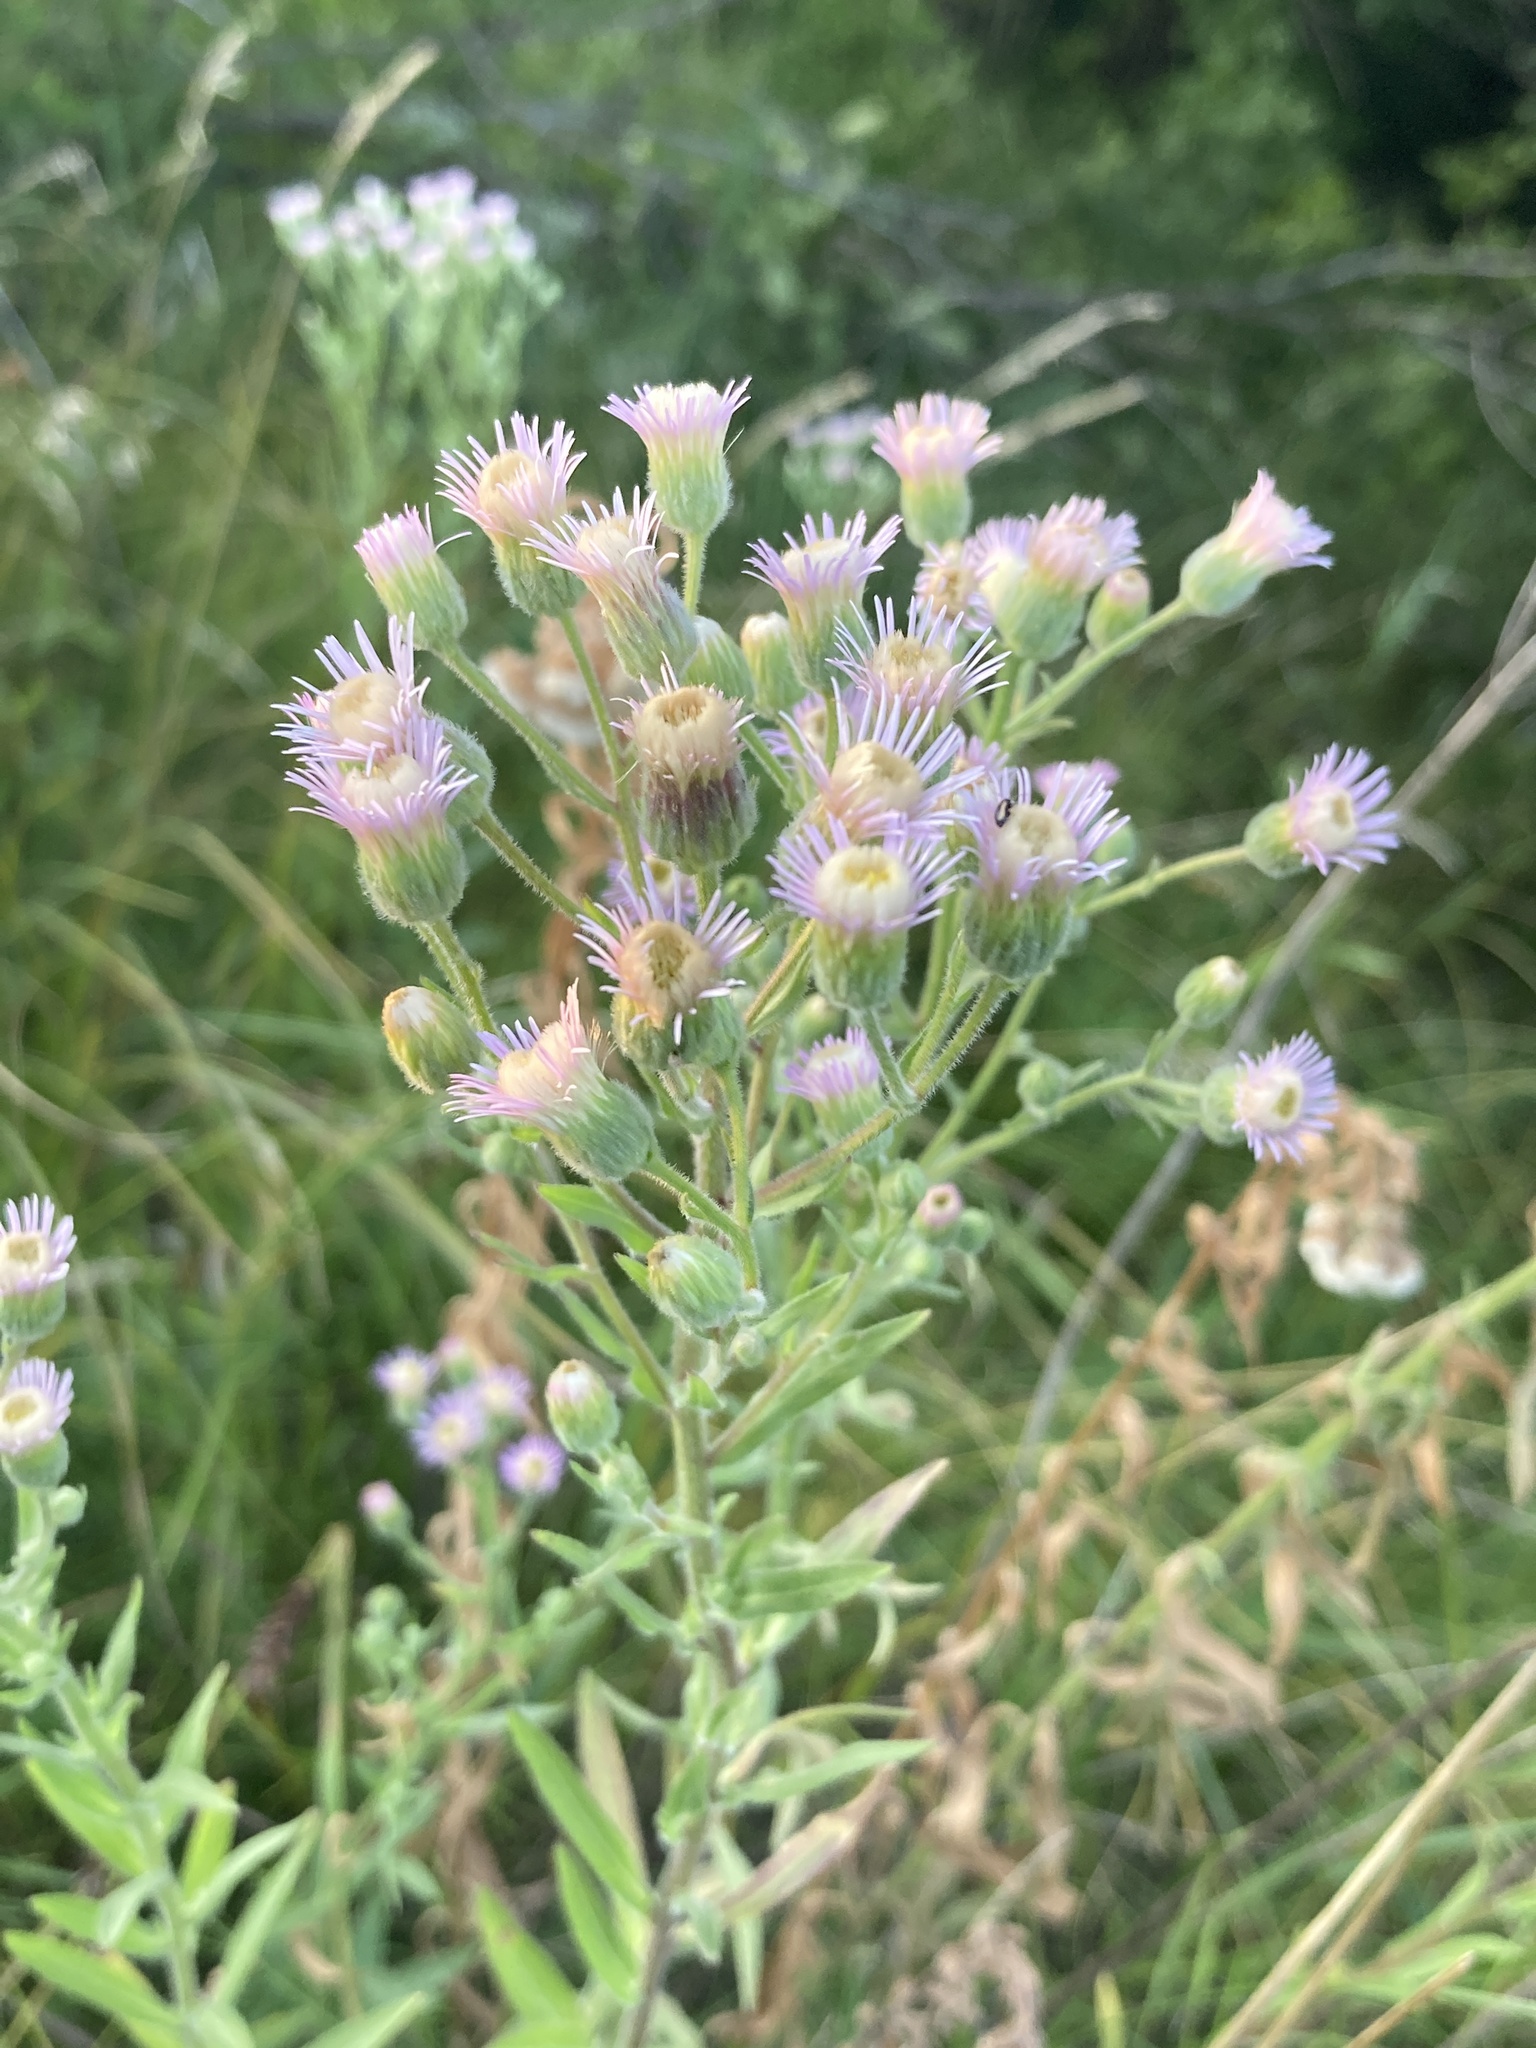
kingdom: Plantae
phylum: Tracheophyta
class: Magnoliopsida
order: Asterales
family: Asteraceae
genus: Erigeron
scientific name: Erigeron acris
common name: Blue fleabane
